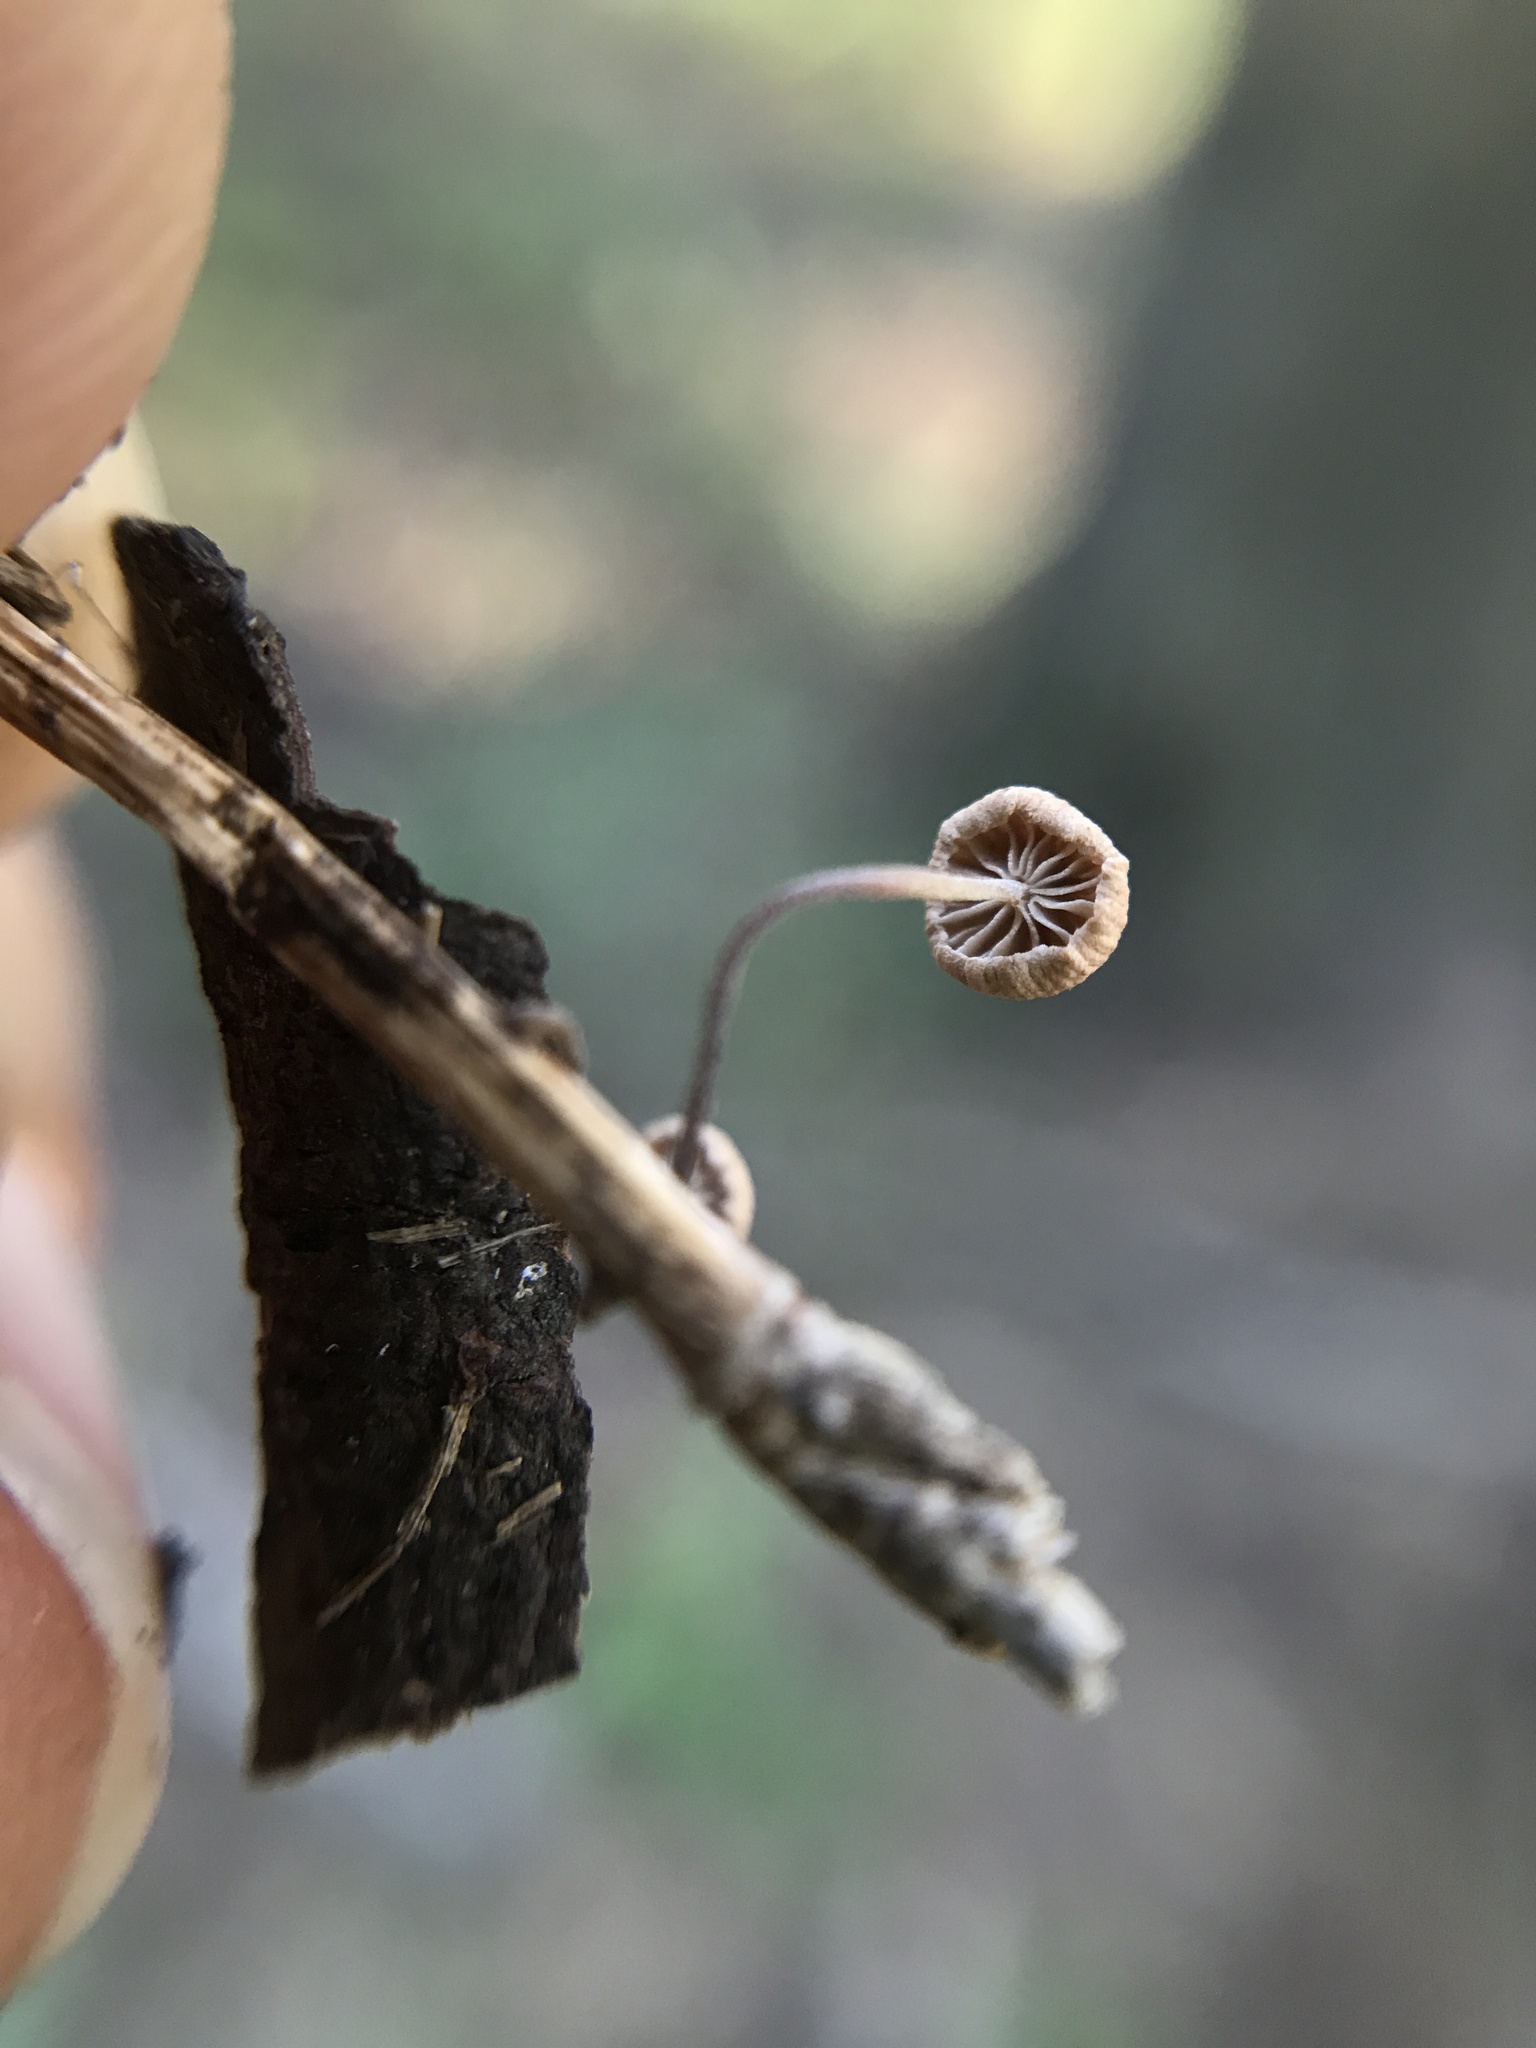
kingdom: Fungi
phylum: Basidiomycota
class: Agaricomycetes
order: Agaricales
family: Omphalotaceae
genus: Collybiopsis
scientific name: Collybiopsis quercophila
